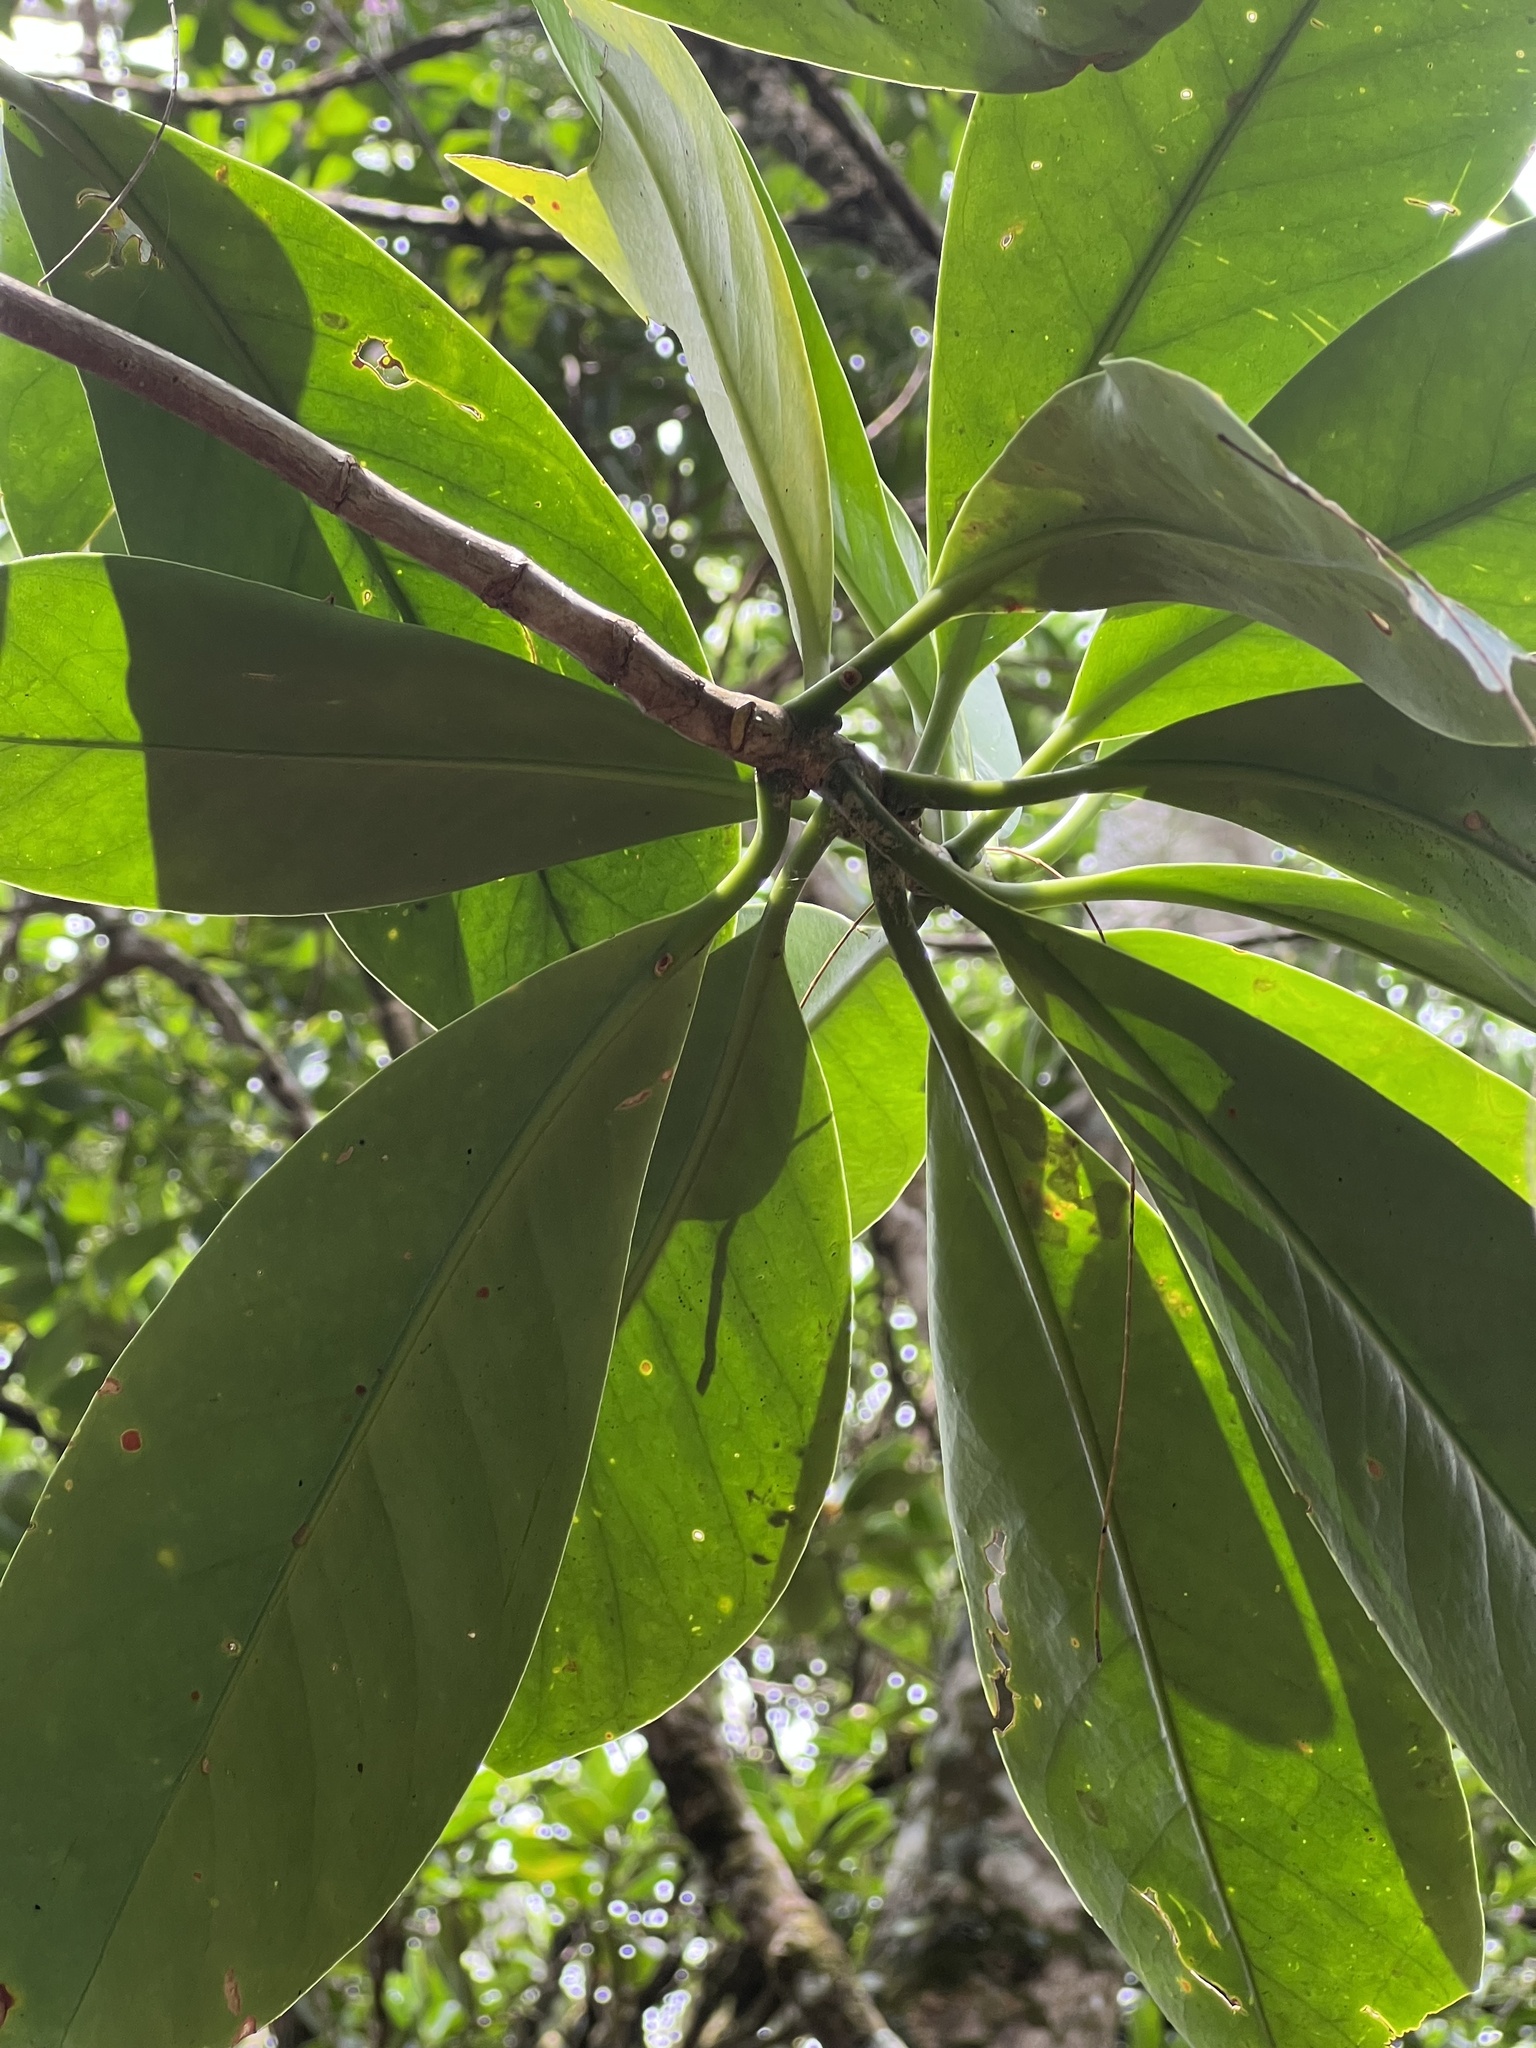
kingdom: Plantae
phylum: Tracheophyta
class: Magnoliopsida
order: Gentianales
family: Gentianaceae
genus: Fagraea
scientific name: Fagraea berteroana
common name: Cape jitta
